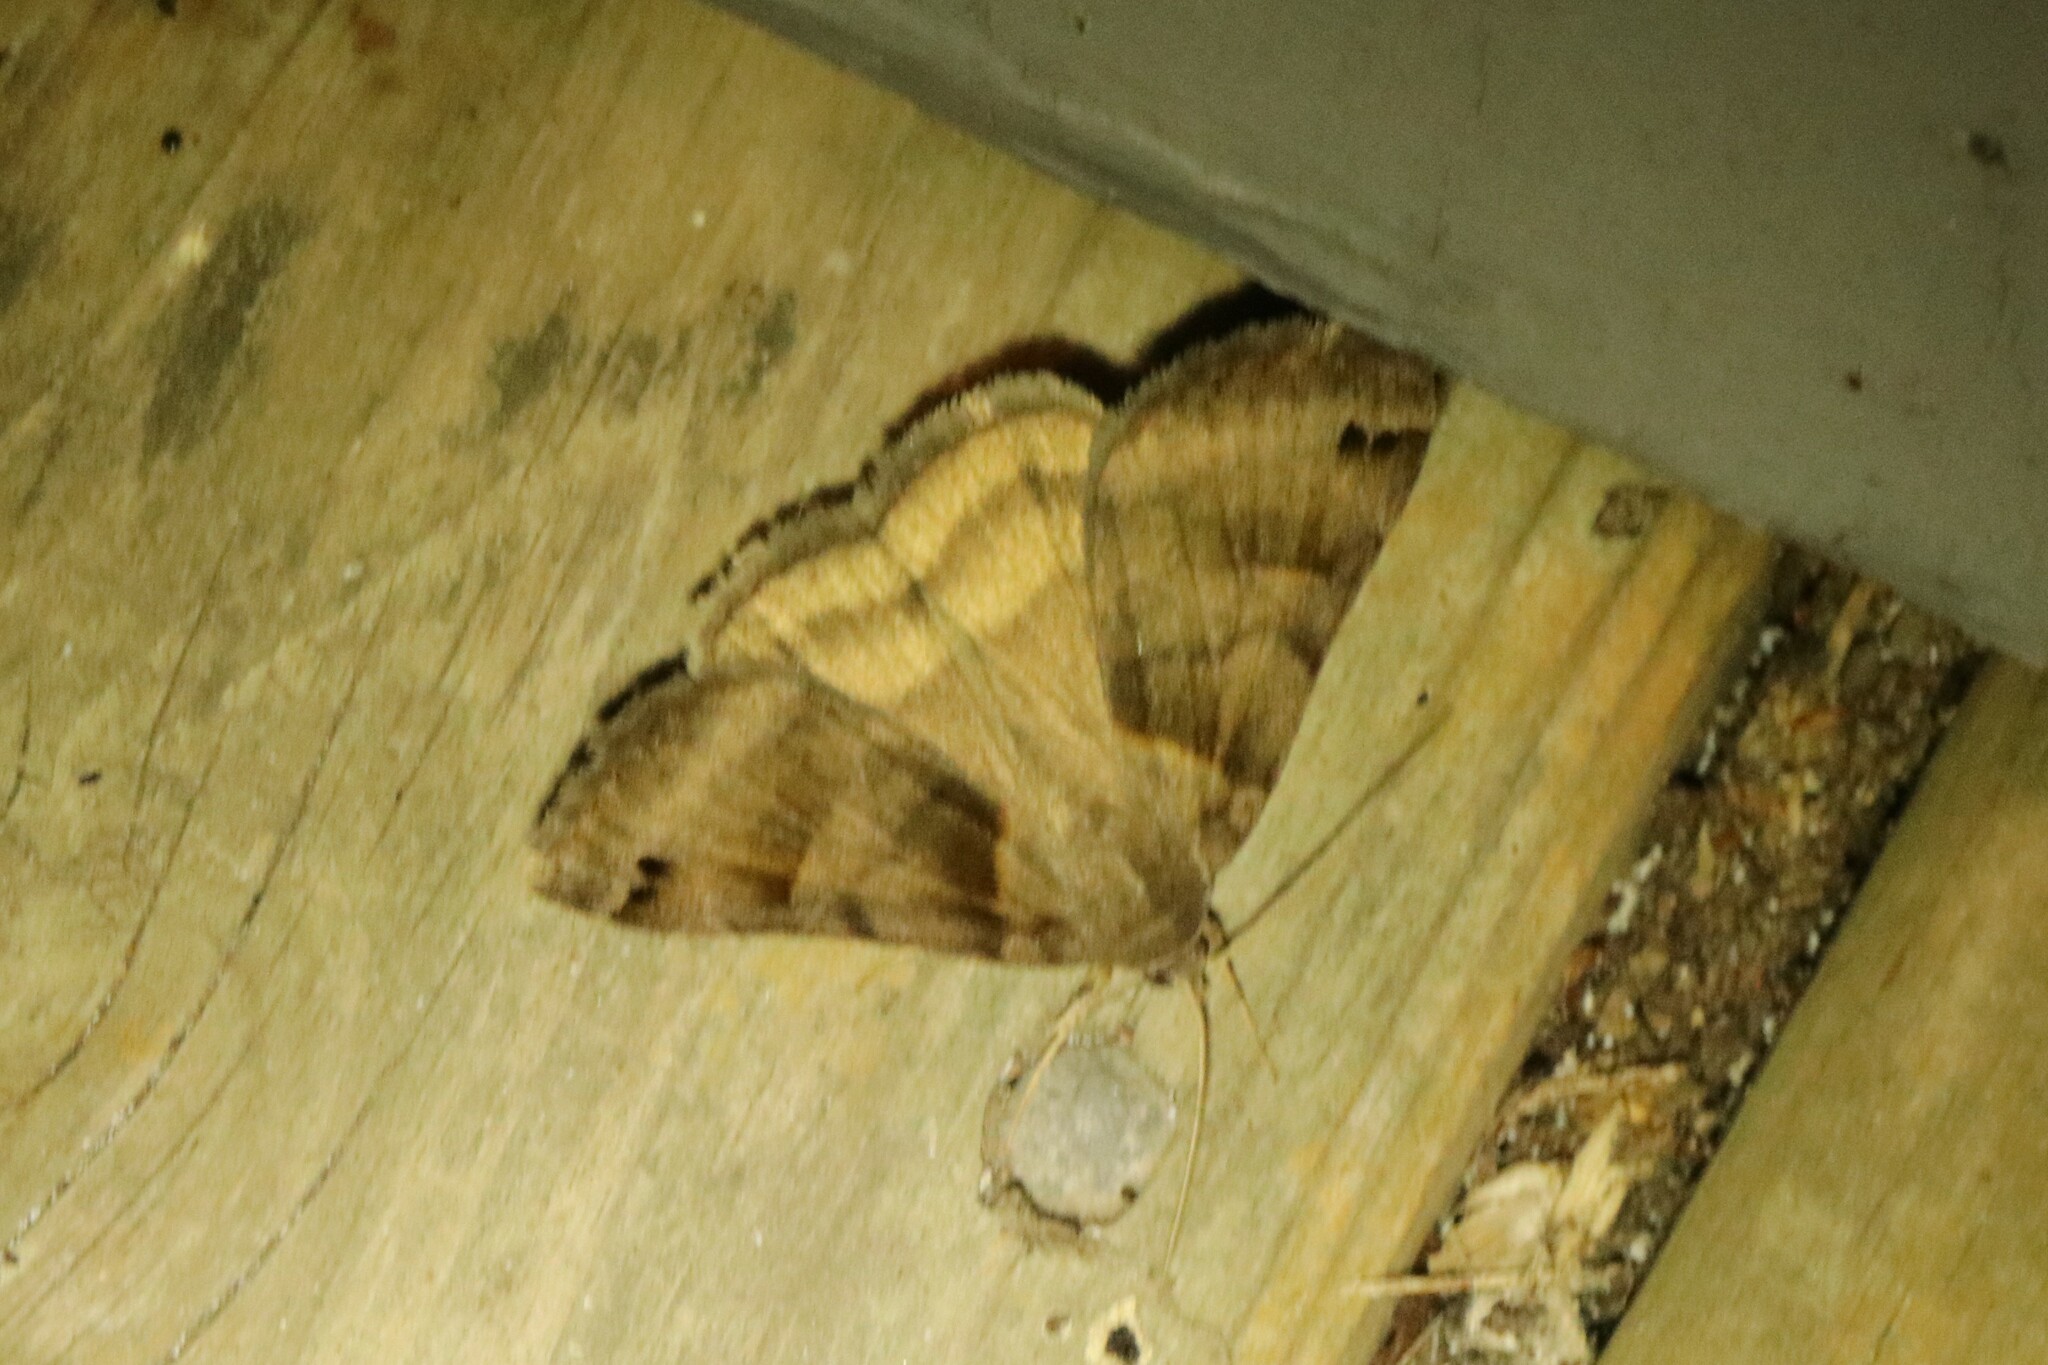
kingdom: Animalia
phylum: Arthropoda
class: Insecta
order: Lepidoptera
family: Erebidae
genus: Caenurgina
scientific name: Caenurgina crassiuscula
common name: Double-barred
